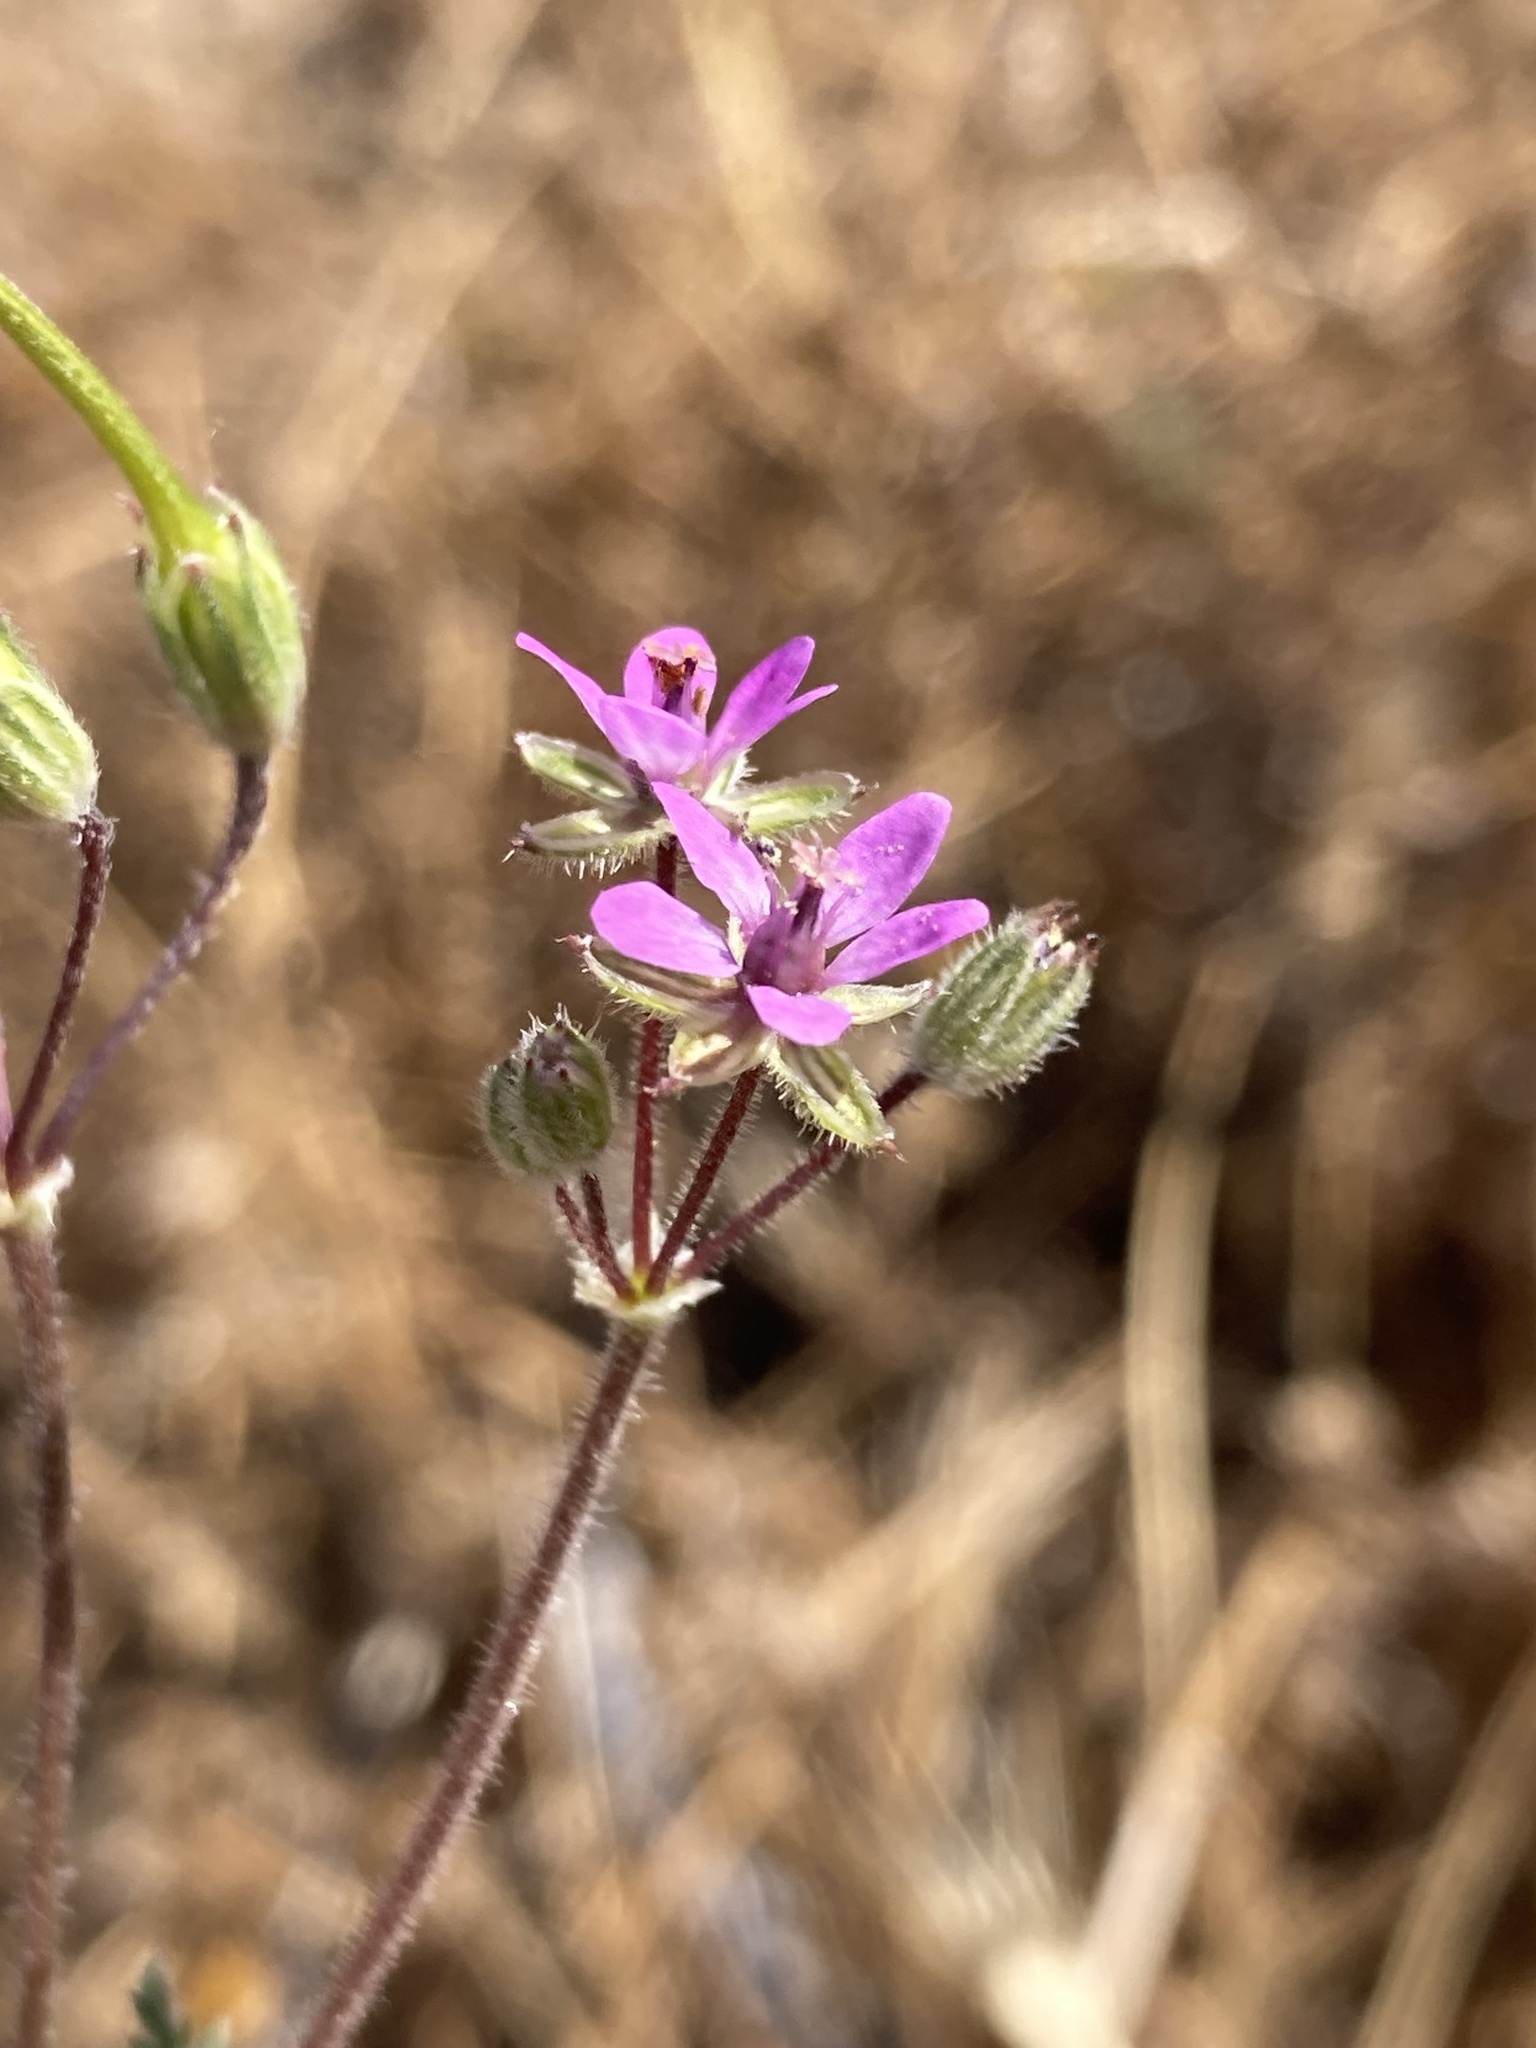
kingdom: Plantae
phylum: Tracheophyta
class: Magnoliopsida
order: Geraniales
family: Geraniaceae
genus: Erodium
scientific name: Erodium cicutarium
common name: Common stork's-bill
